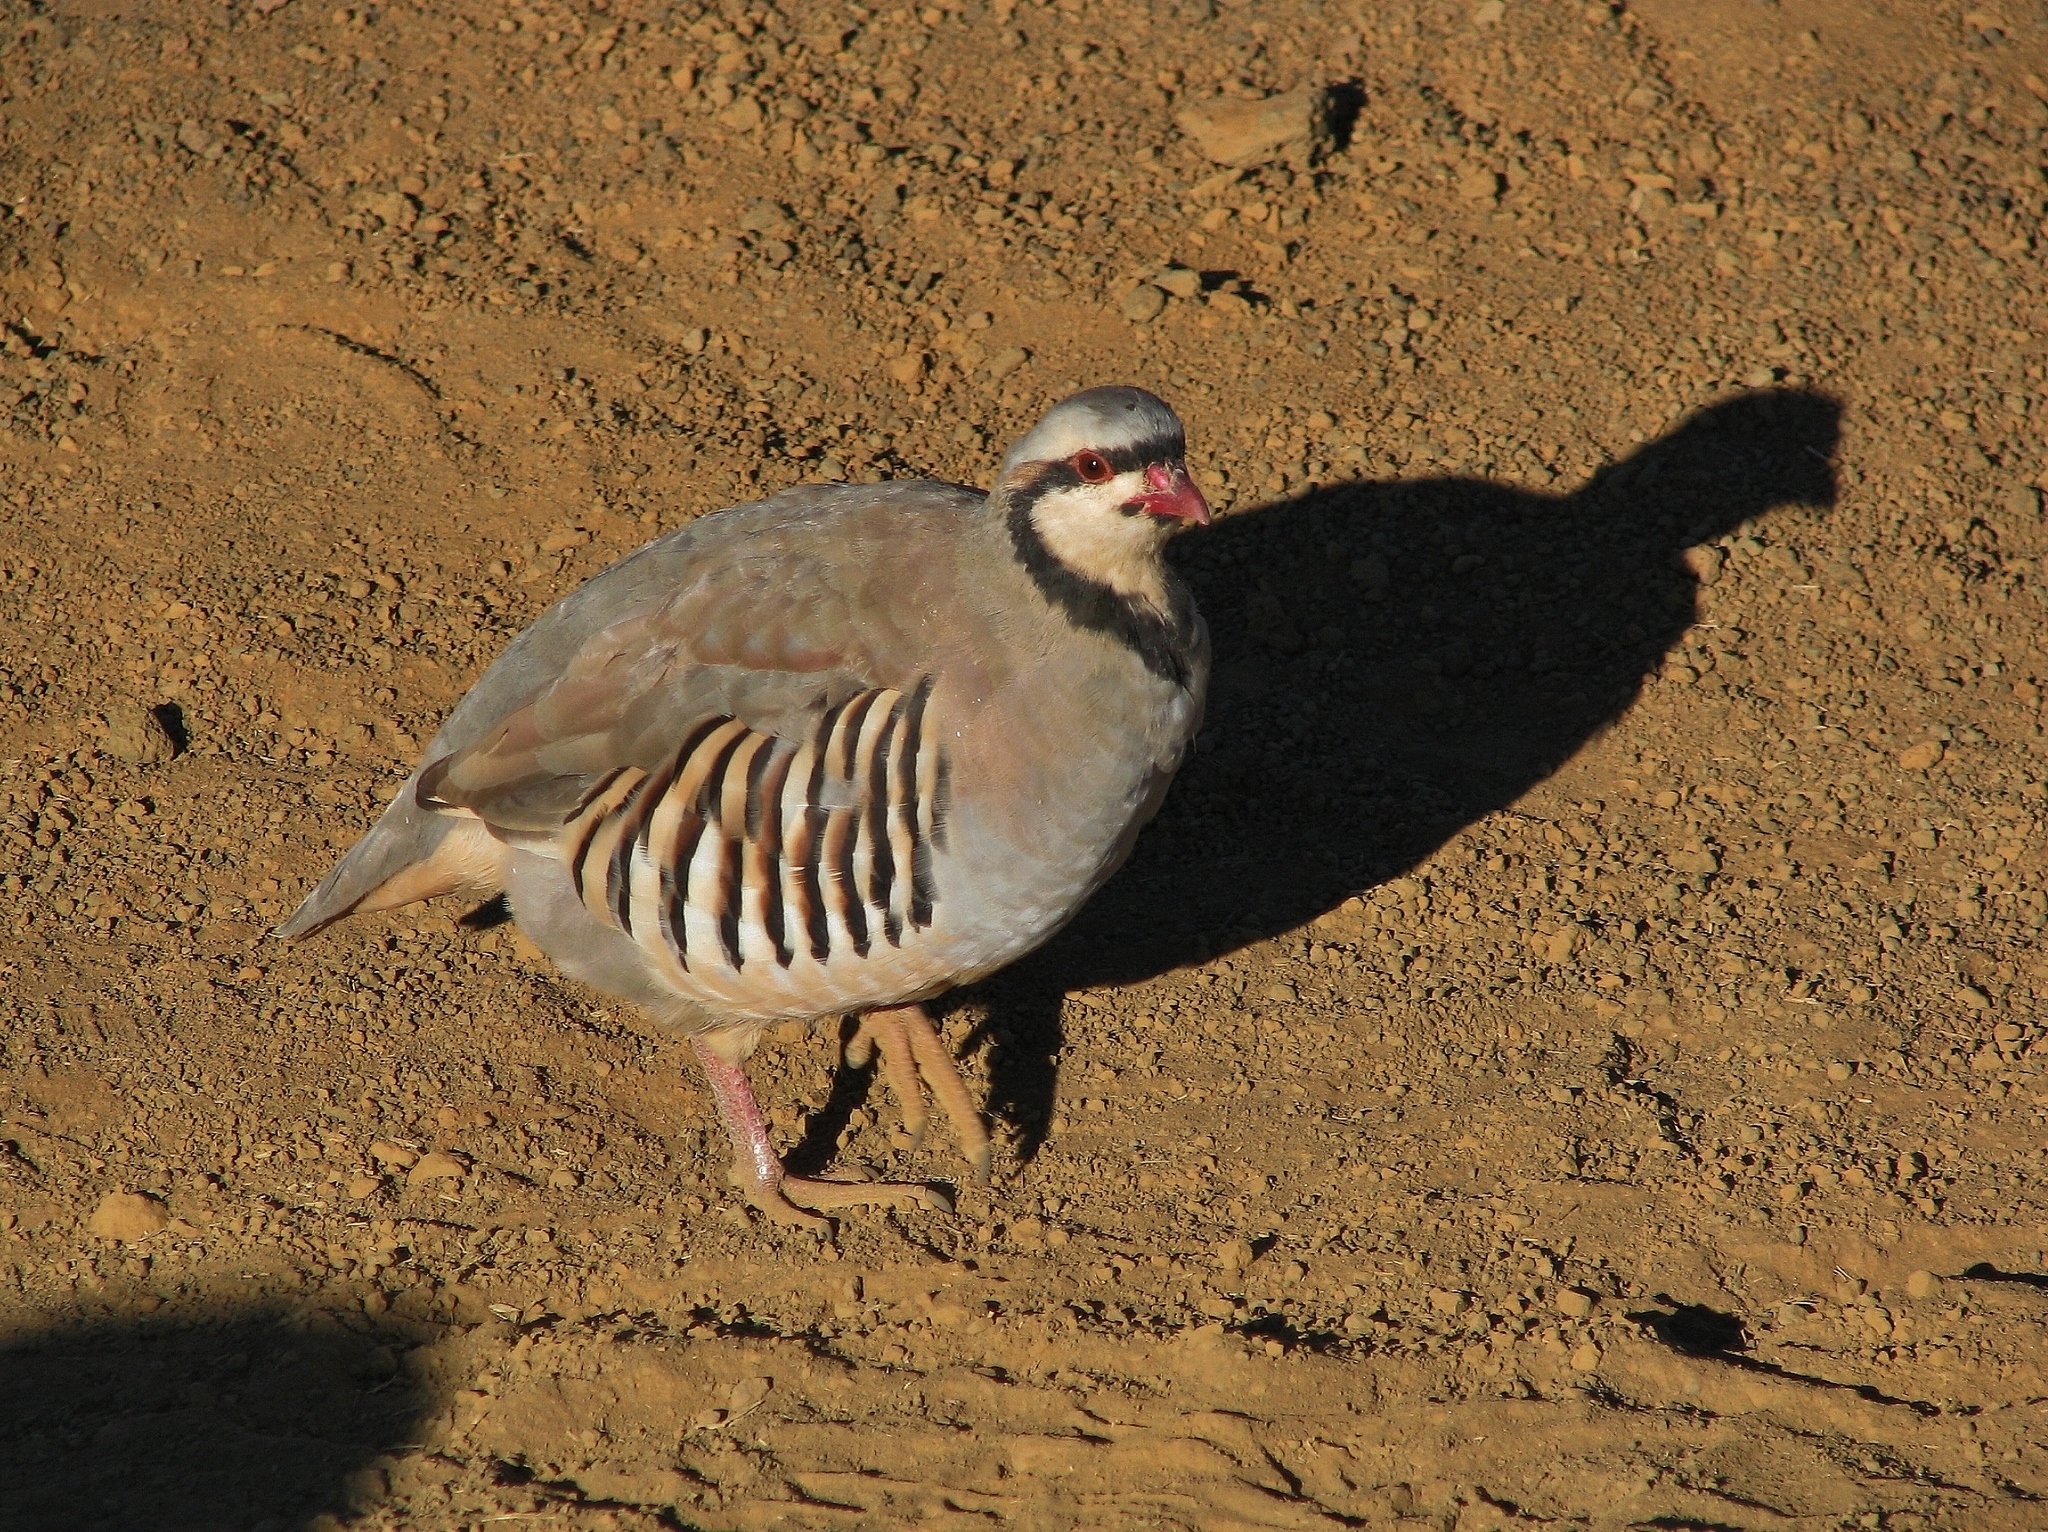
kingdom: Animalia
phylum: Chordata
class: Aves
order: Galliformes
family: Phasianidae
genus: Alectoris
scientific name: Alectoris chukar
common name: Chukar
